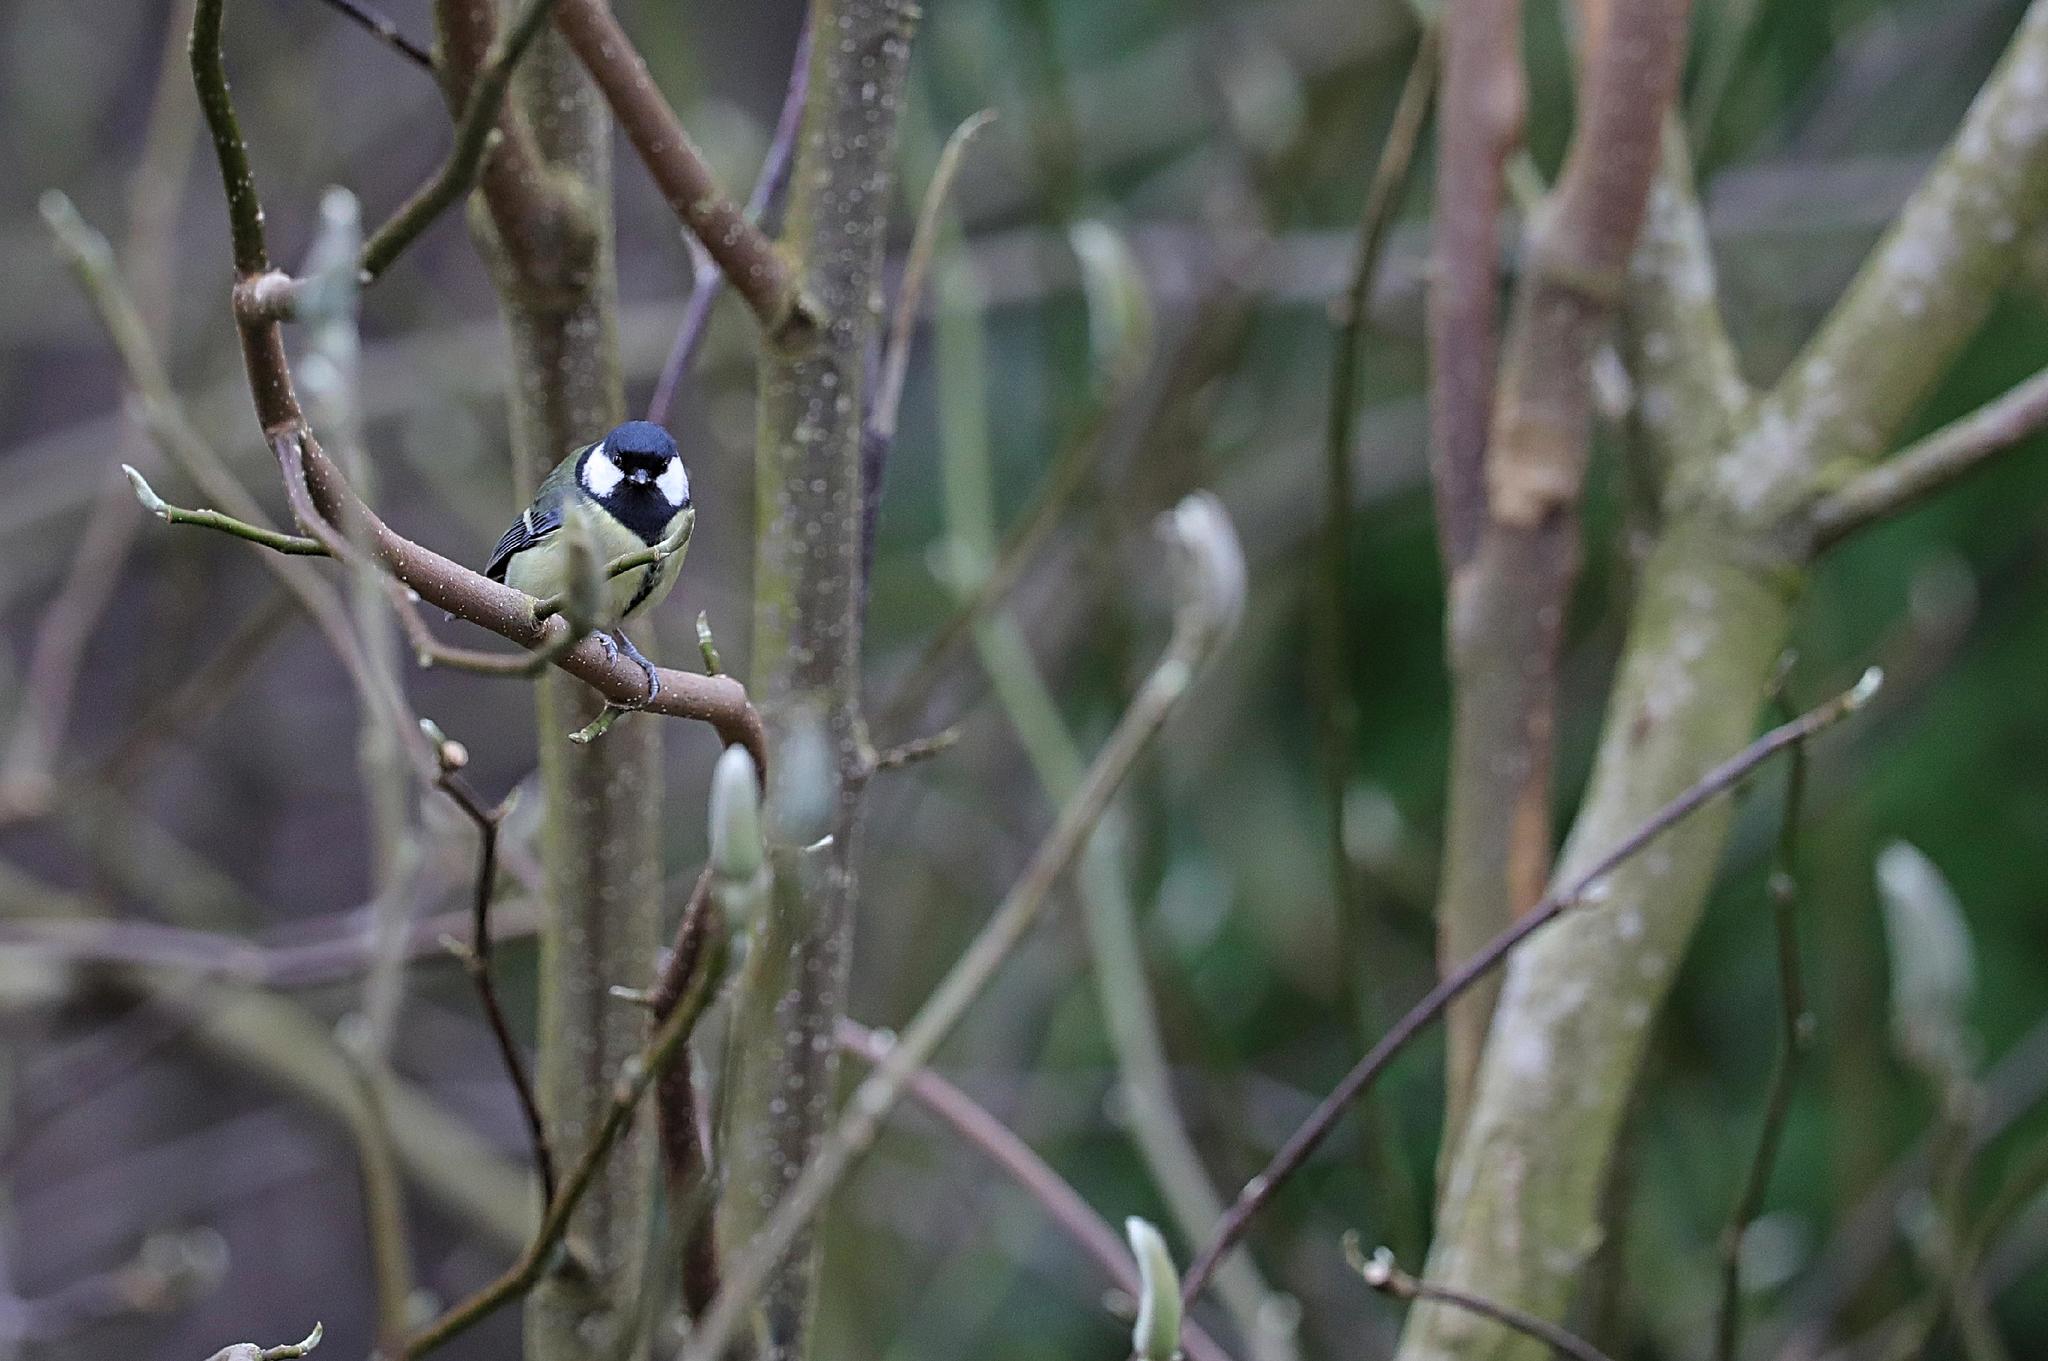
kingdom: Animalia
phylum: Chordata
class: Aves
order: Passeriformes
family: Paridae
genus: Parus
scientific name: Parus major
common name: Great tit
